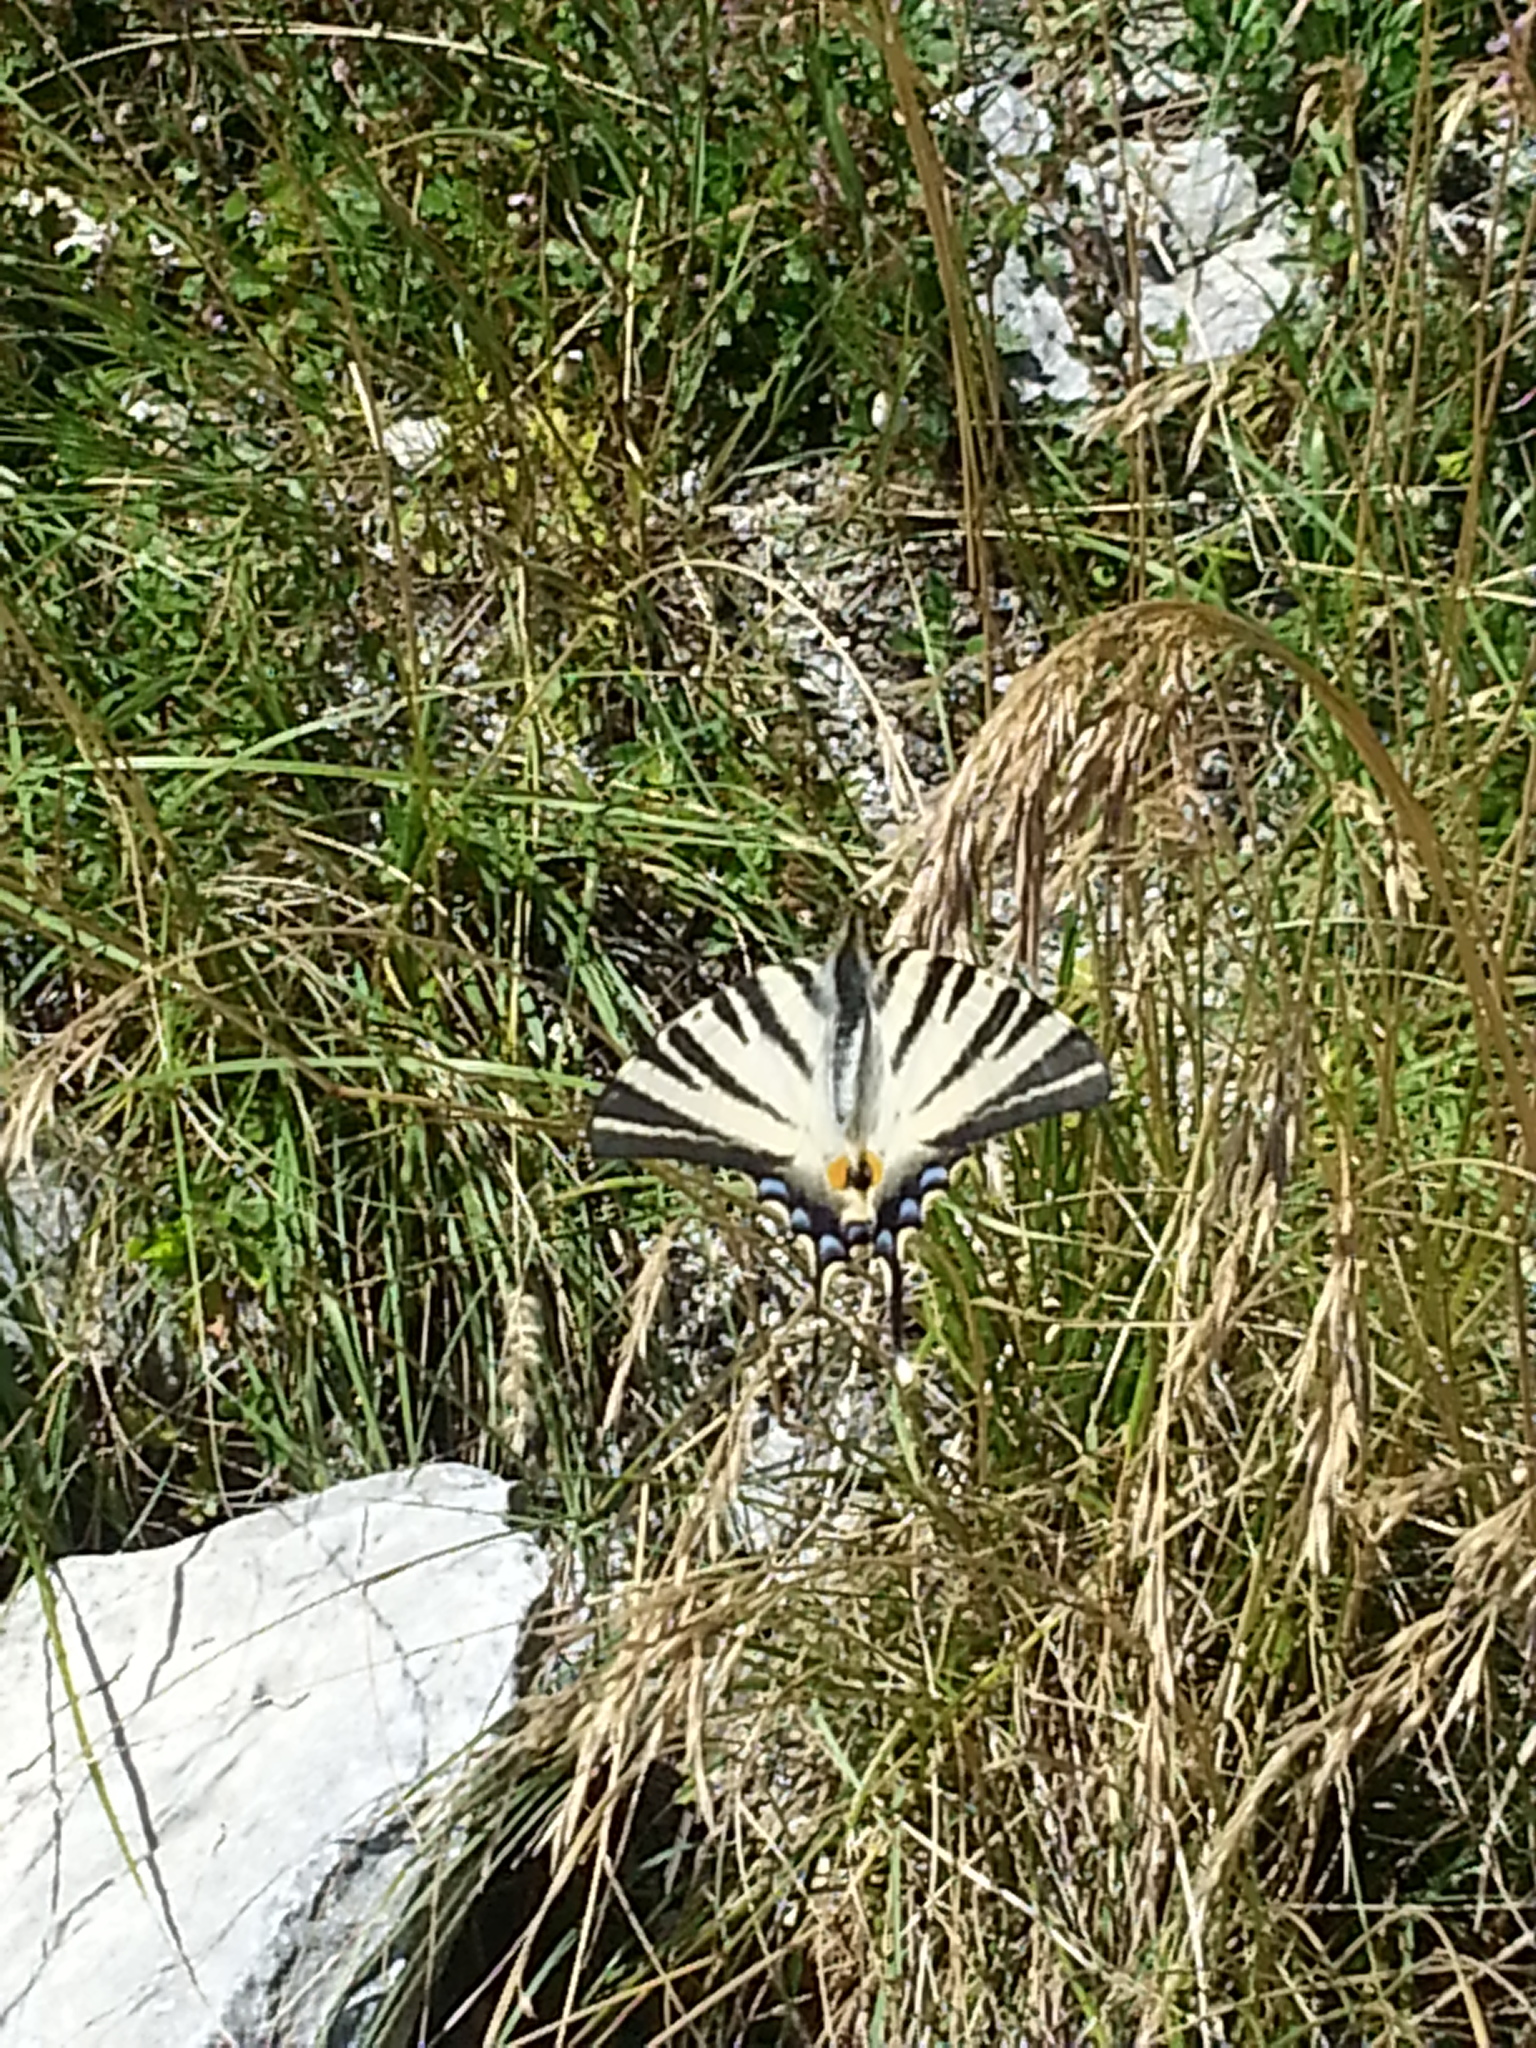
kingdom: Animalia
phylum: Arthropoda
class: Insecta
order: Lepidoptera
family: Papilionidae
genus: Iphiclides
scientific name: Iphiclides podalirius
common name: Scarce swallowtail
